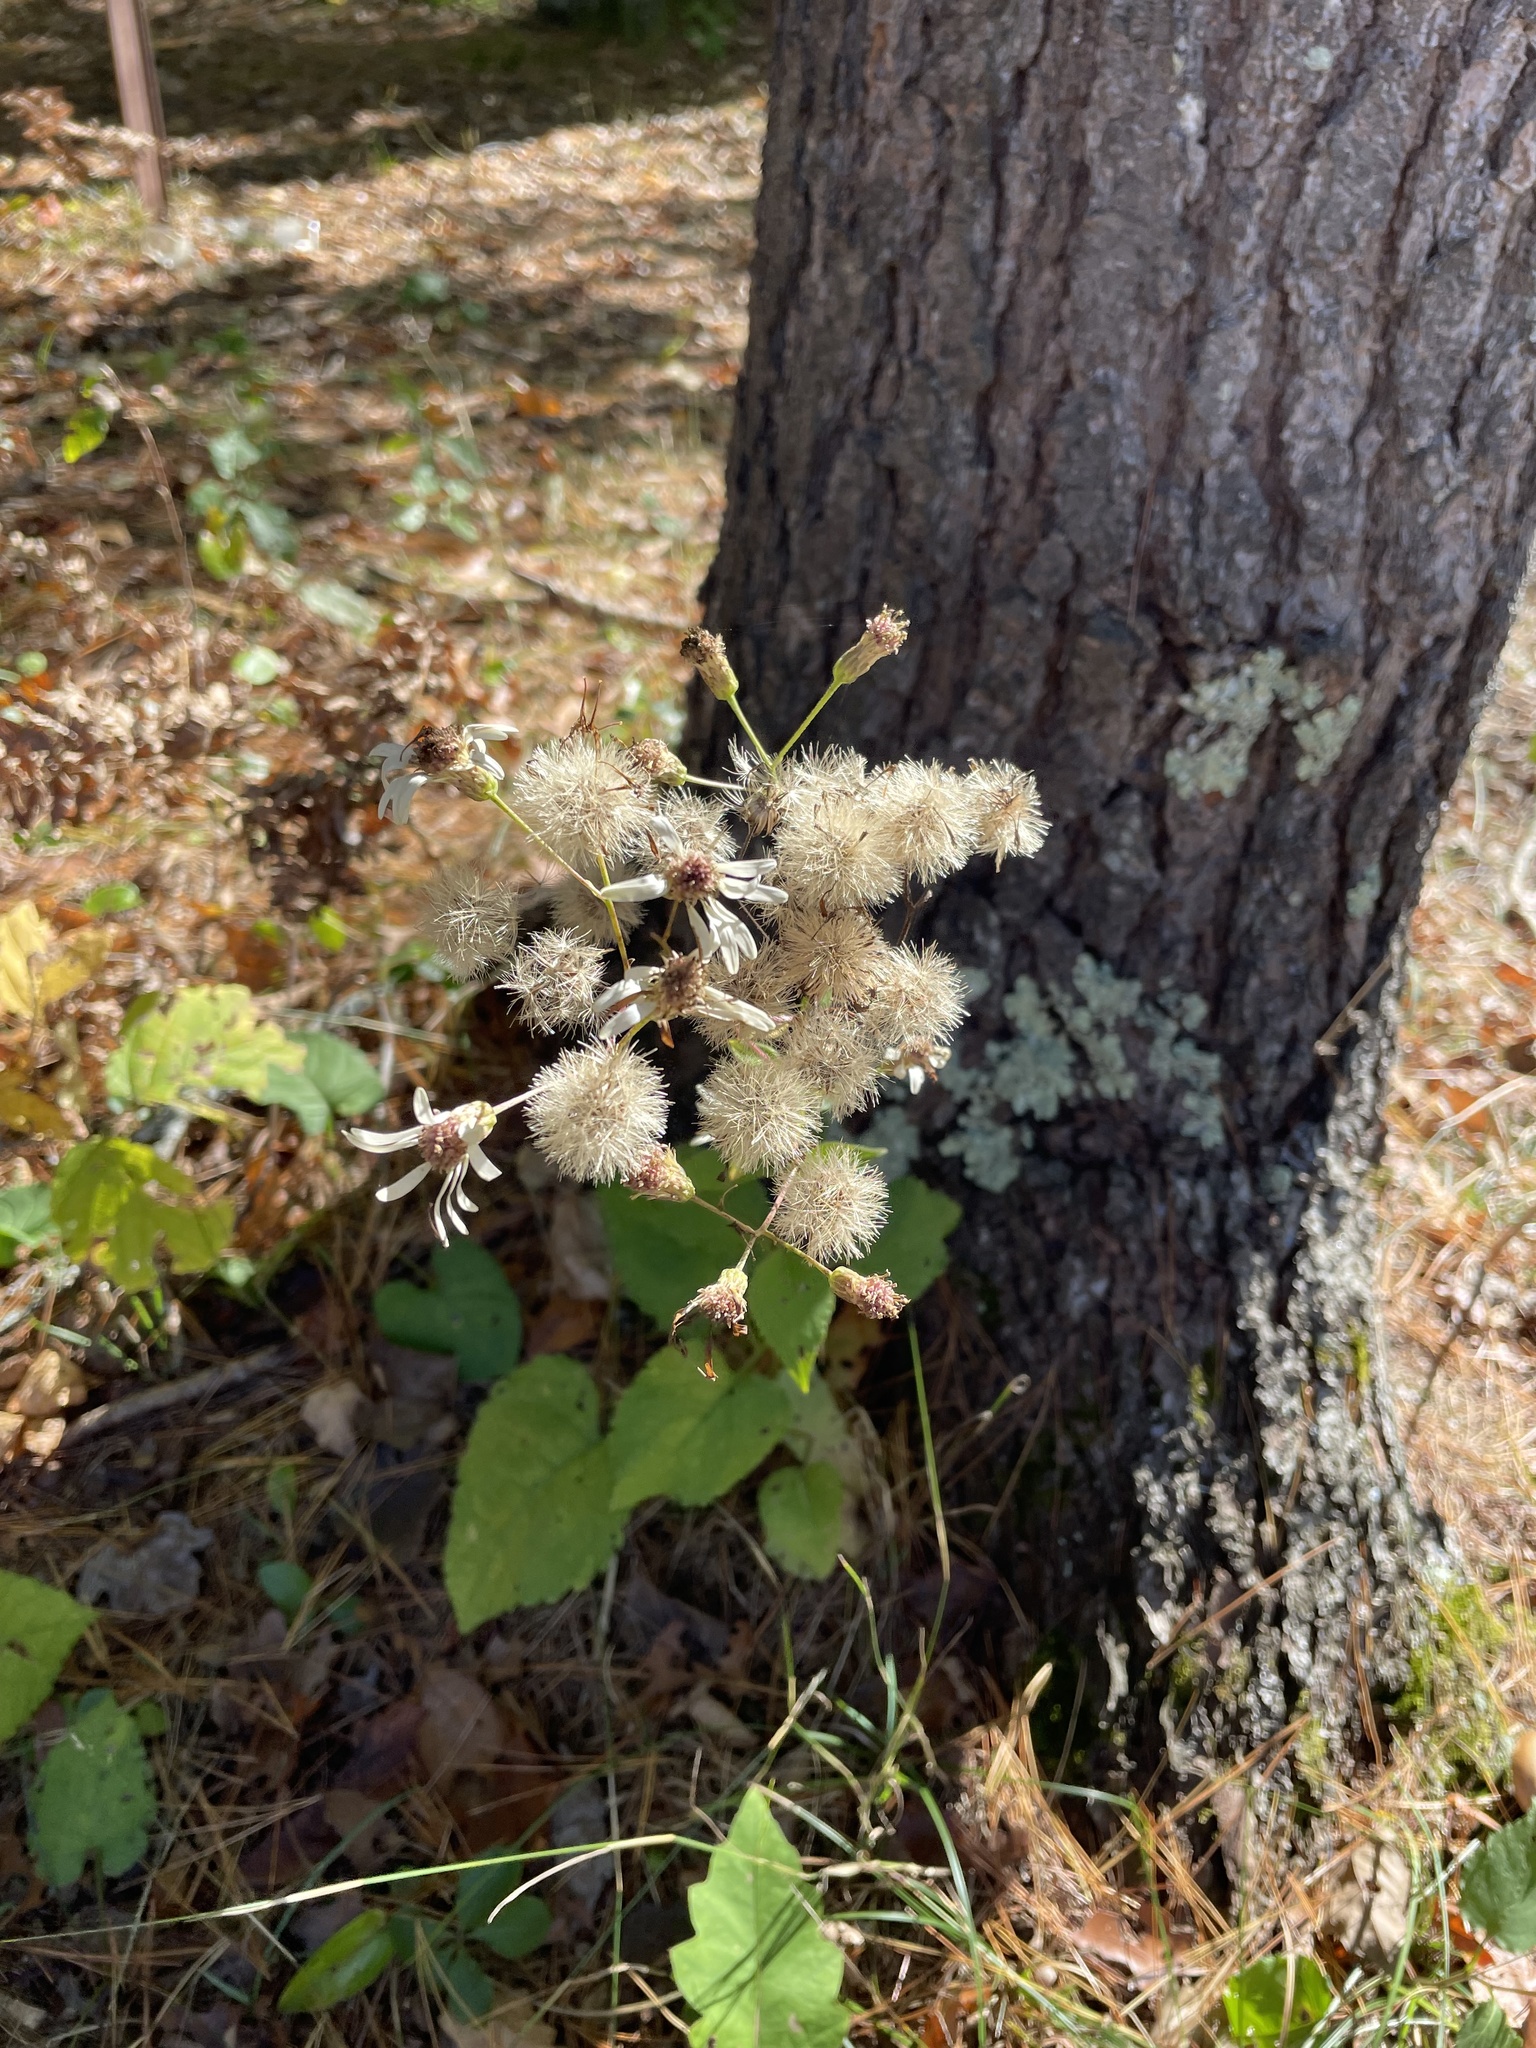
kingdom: Plantae
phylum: Tracheophyta
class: Magnoliopsida
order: Asterales
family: Asteraceae
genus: Eurybia
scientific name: Eurybia macrophylla
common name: Big-leaved aster
